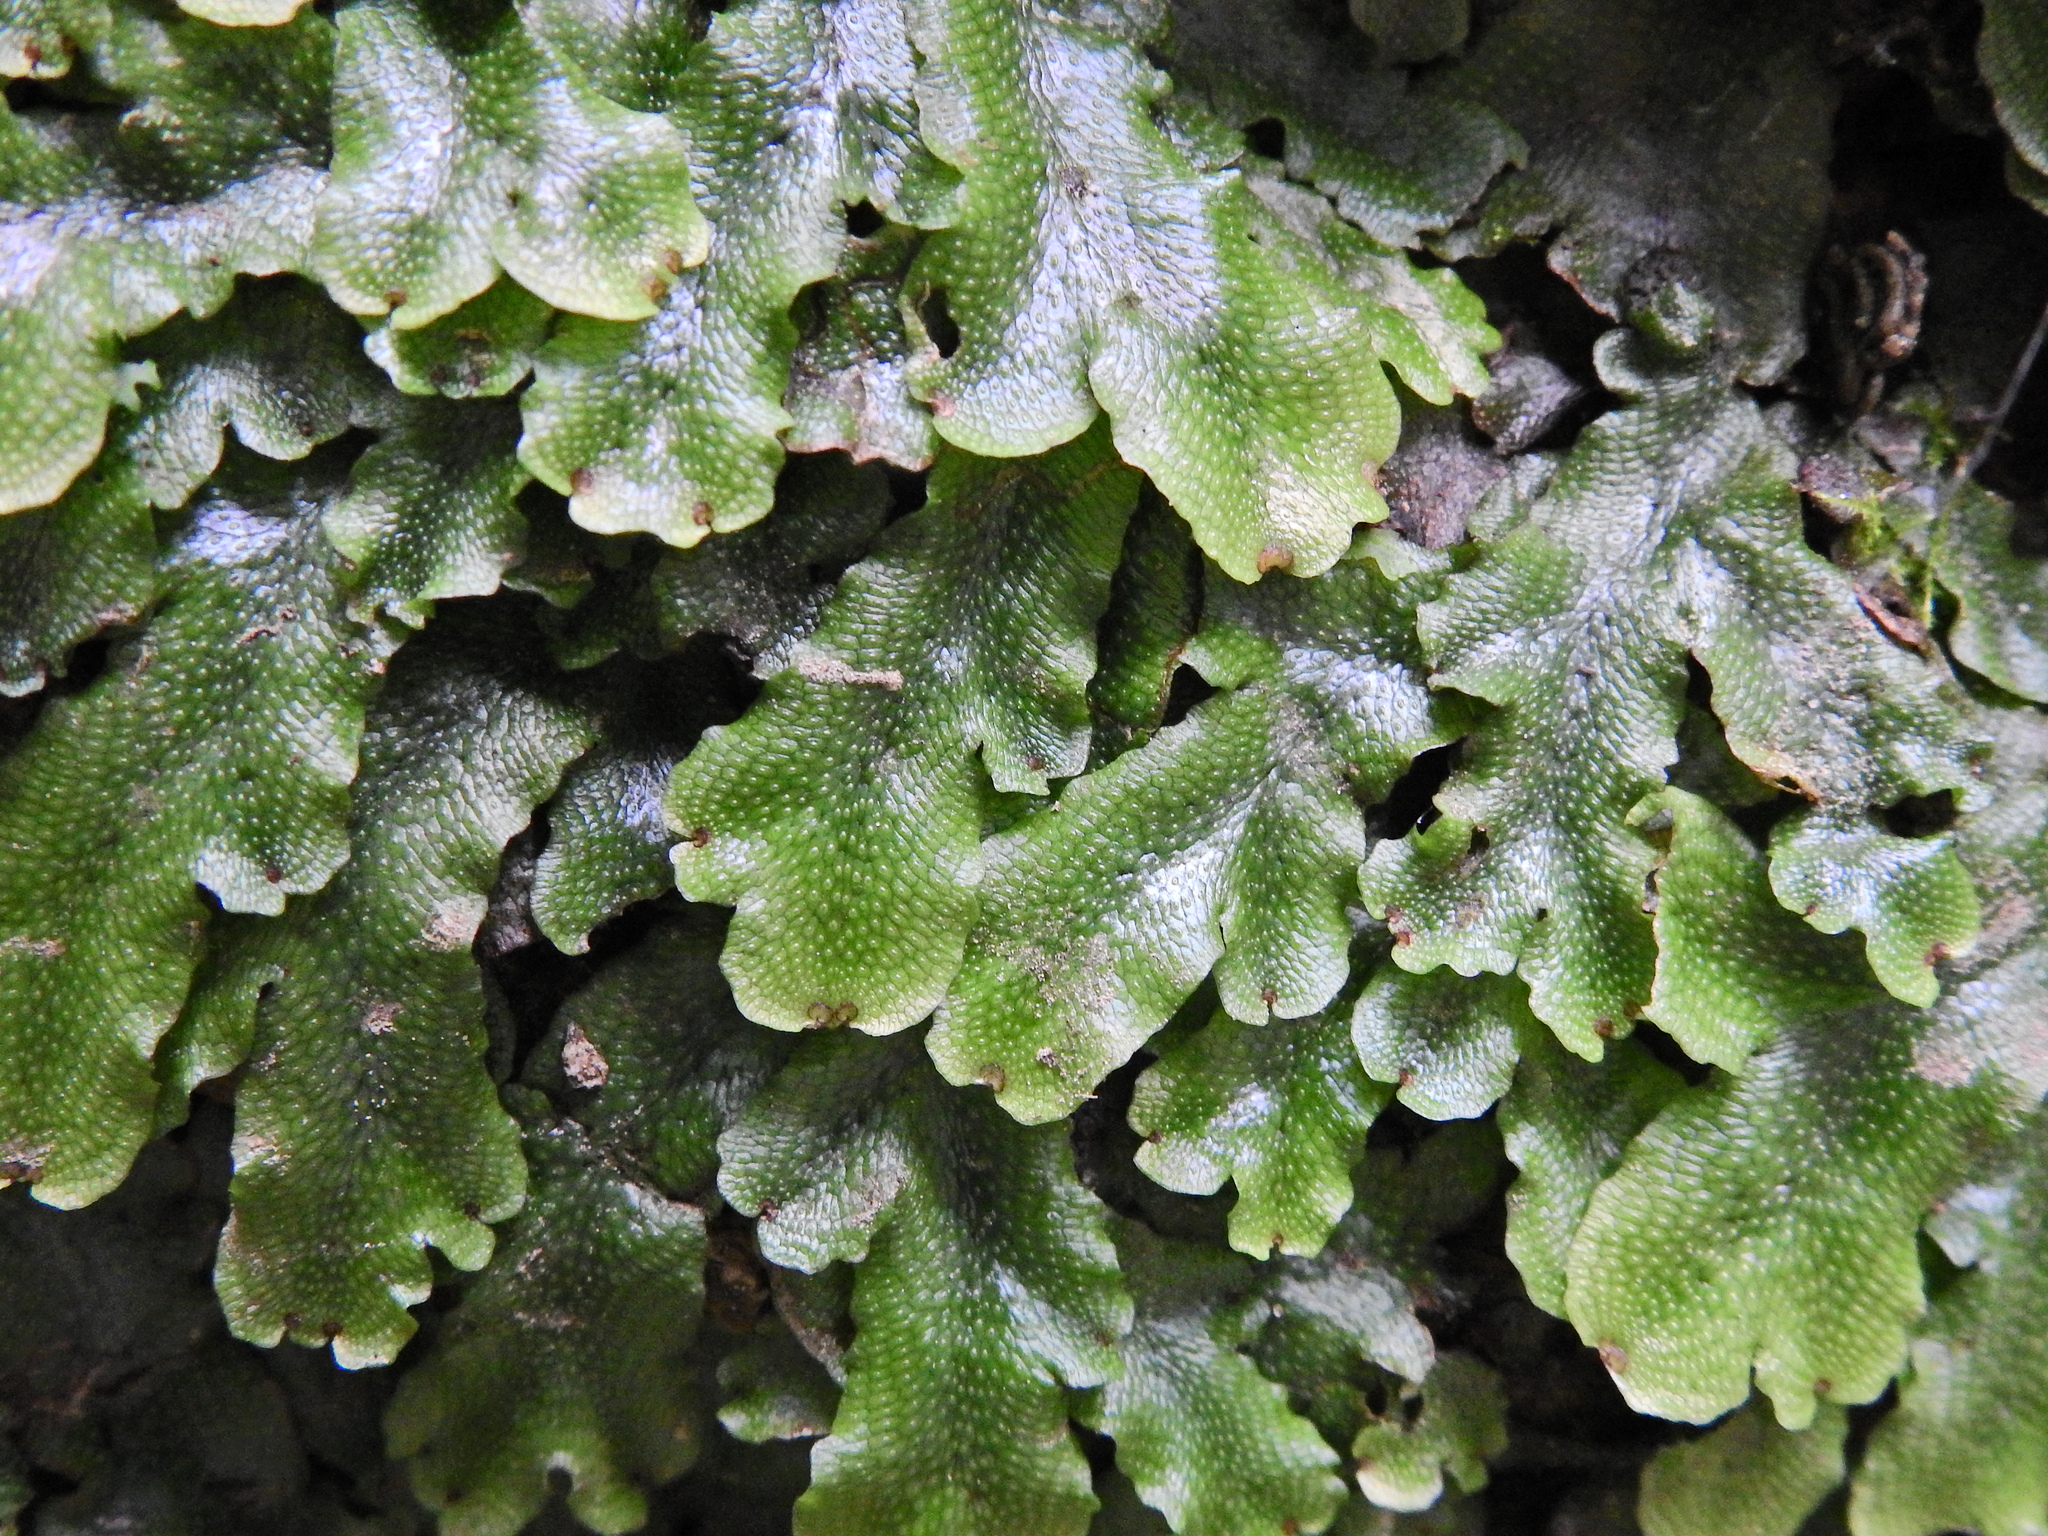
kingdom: Plantae
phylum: Marchantiophyta
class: Marchantiopsida
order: Marchantiales
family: Conocephalaceae
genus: Conocephalum
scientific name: Conocephalum conicum
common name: Great scented liverwort
